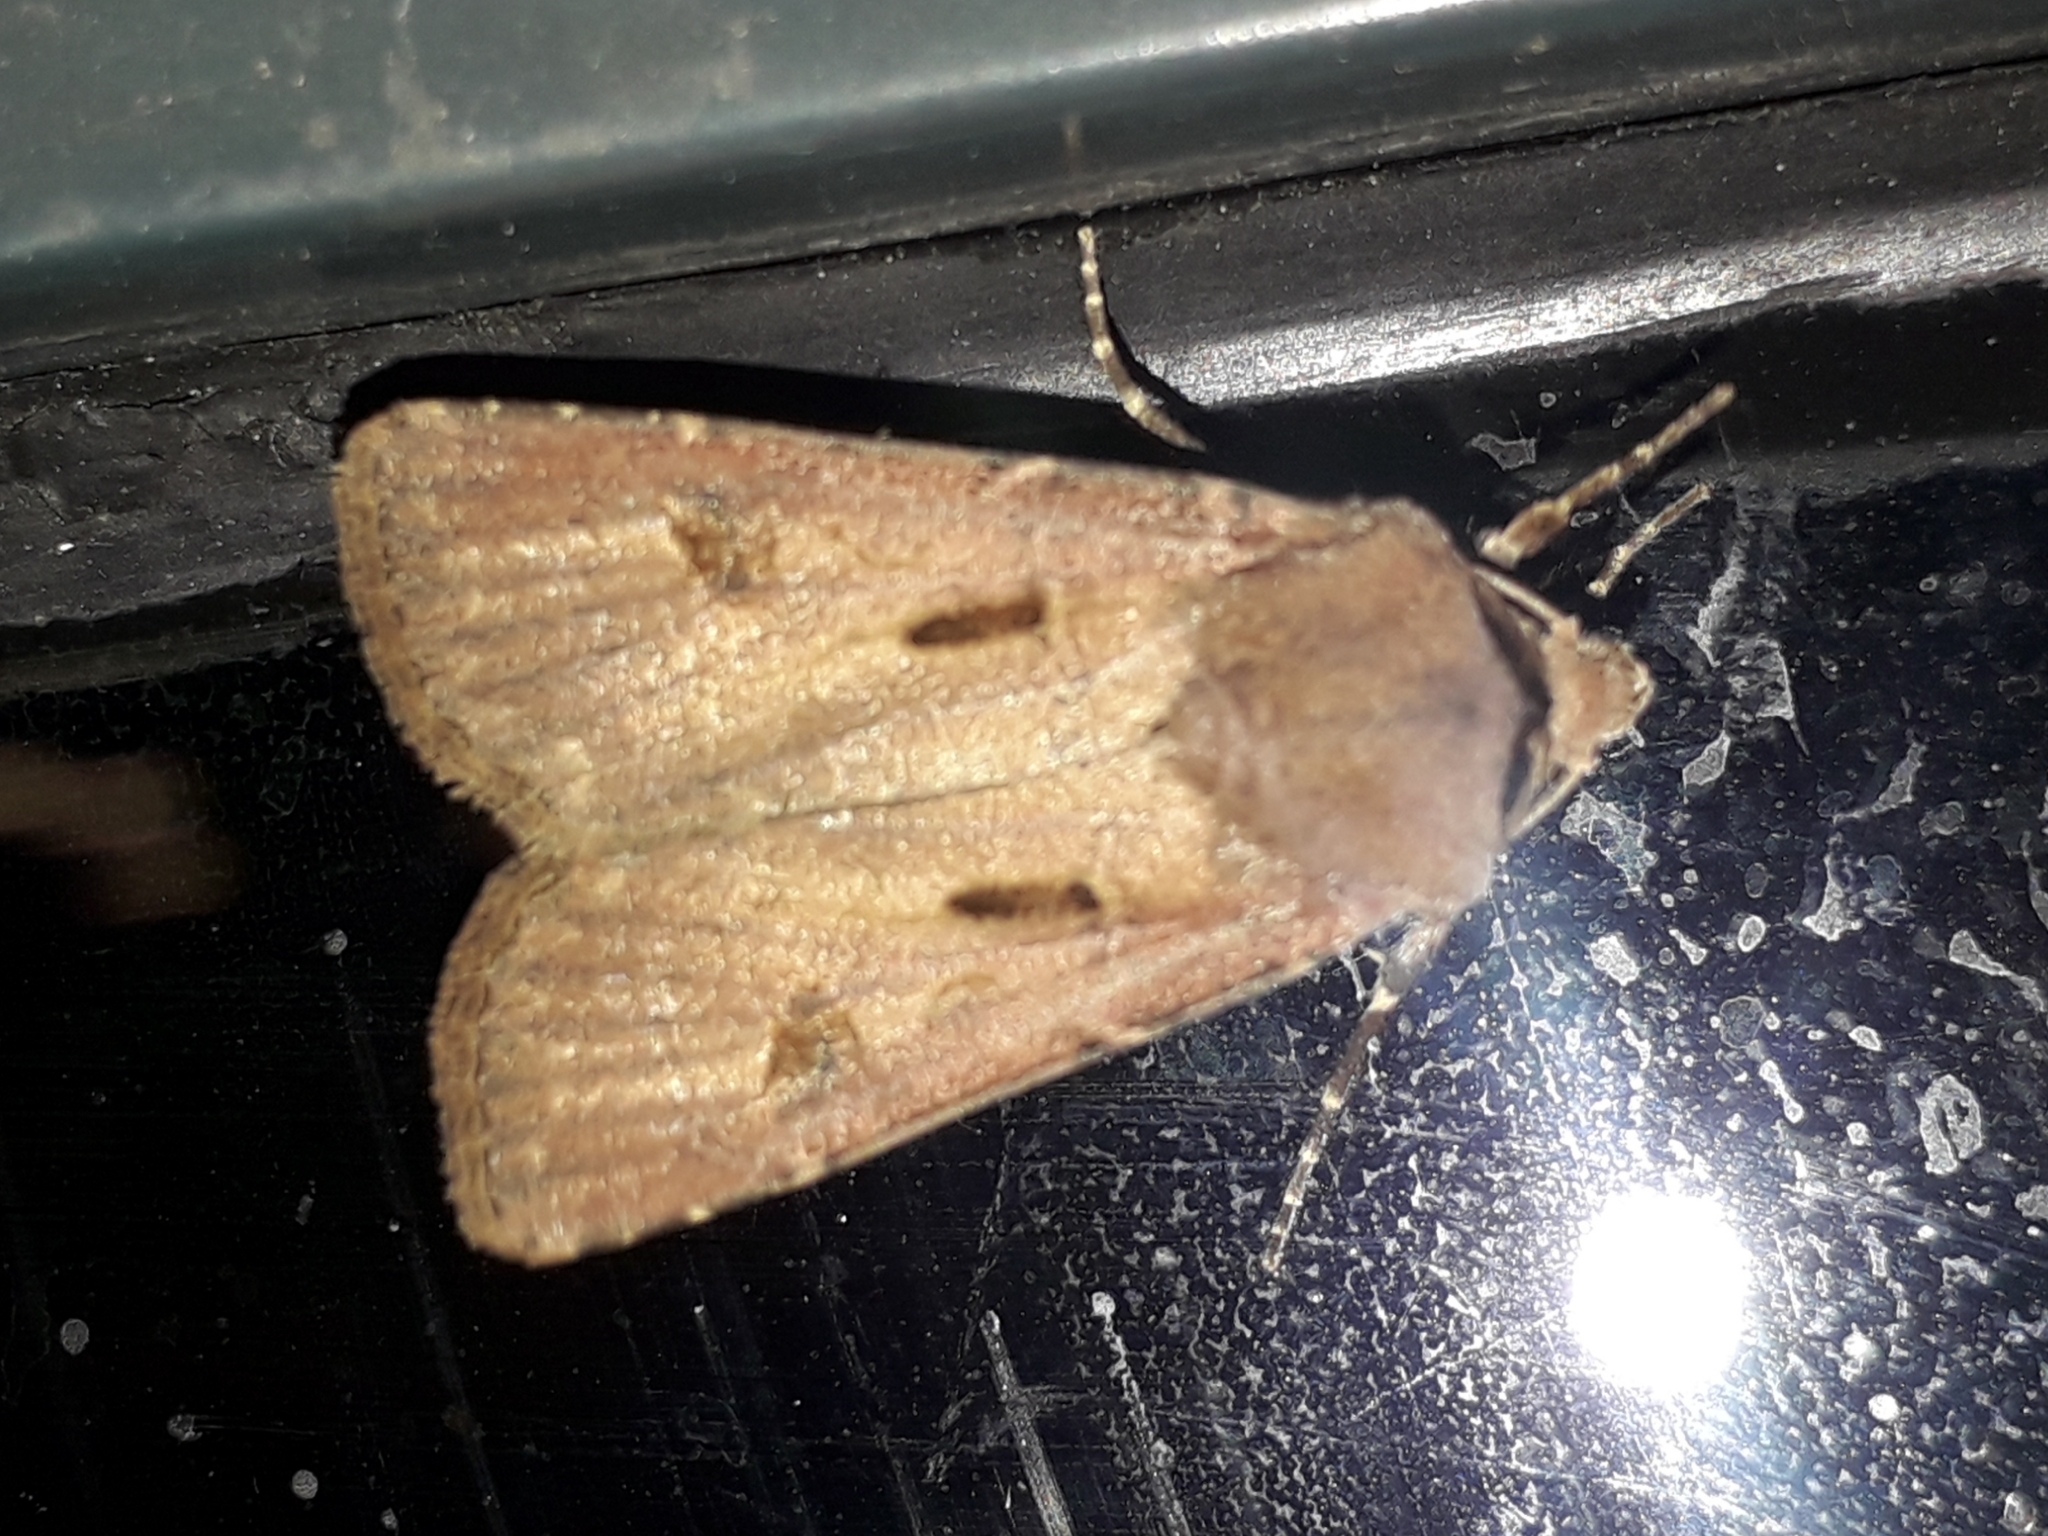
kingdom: Animalia
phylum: Arthropoda
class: Insecta
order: Lepidoptera
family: Noctuidae
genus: Agrotis
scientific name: Agrotis exclamationis
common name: Heart and dart
